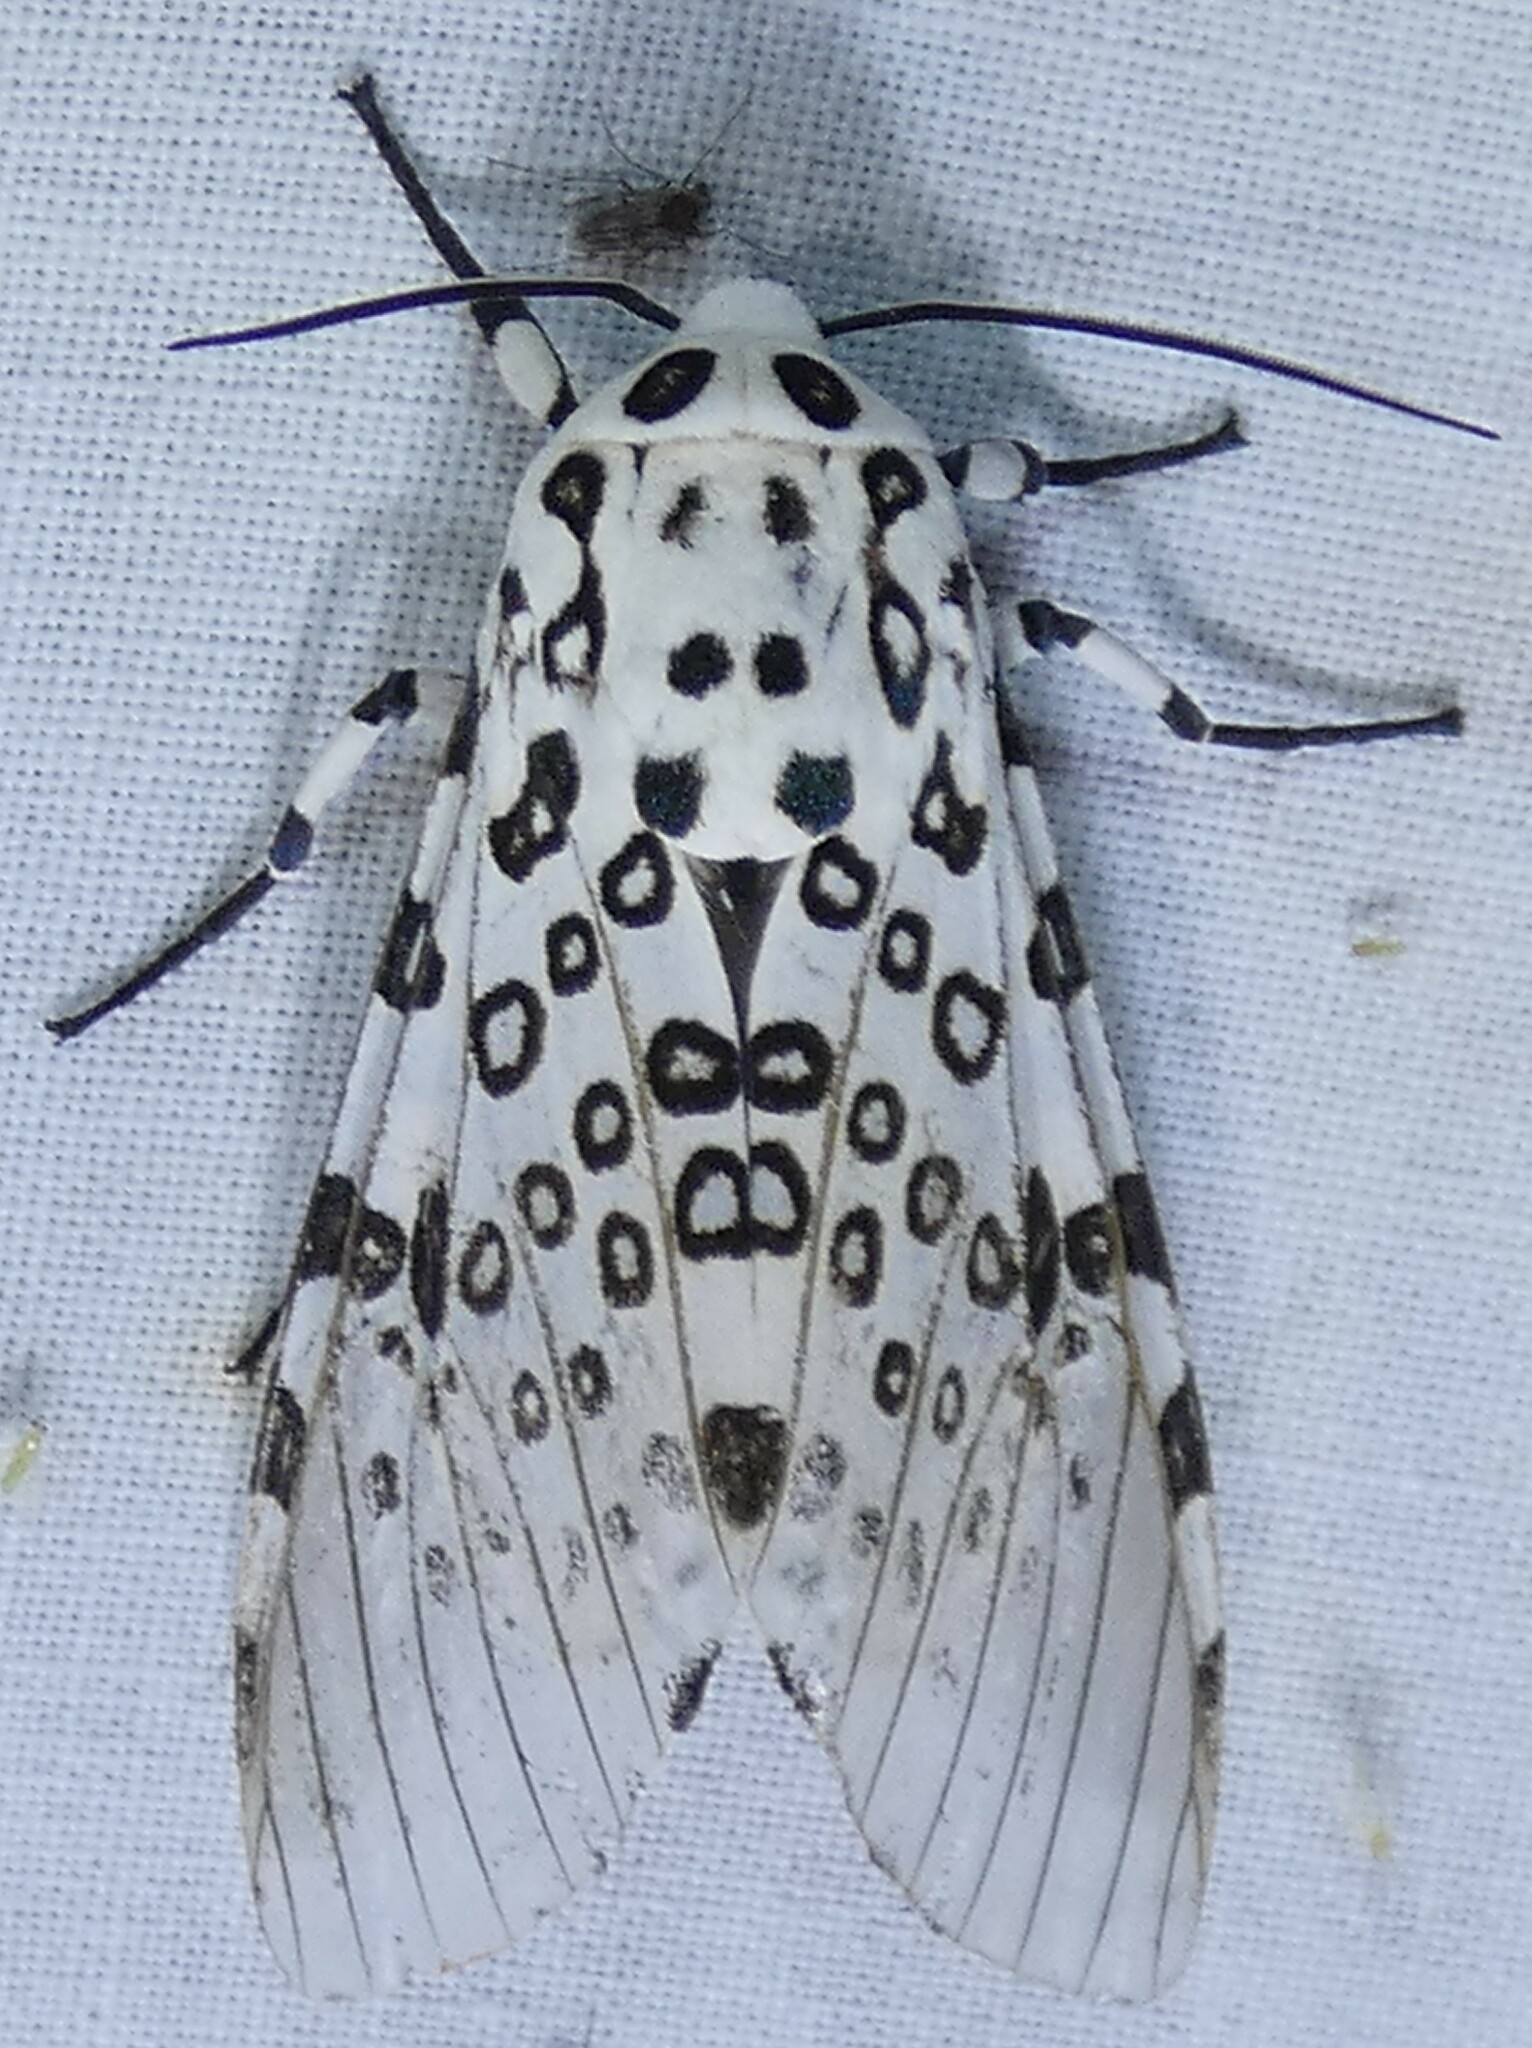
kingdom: Animalia
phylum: Arthropoda
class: Insecta
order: Lepidoptera
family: Erebidae
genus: Hypercompe
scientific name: Hypercompe scribonia
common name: Giant leopard moth
